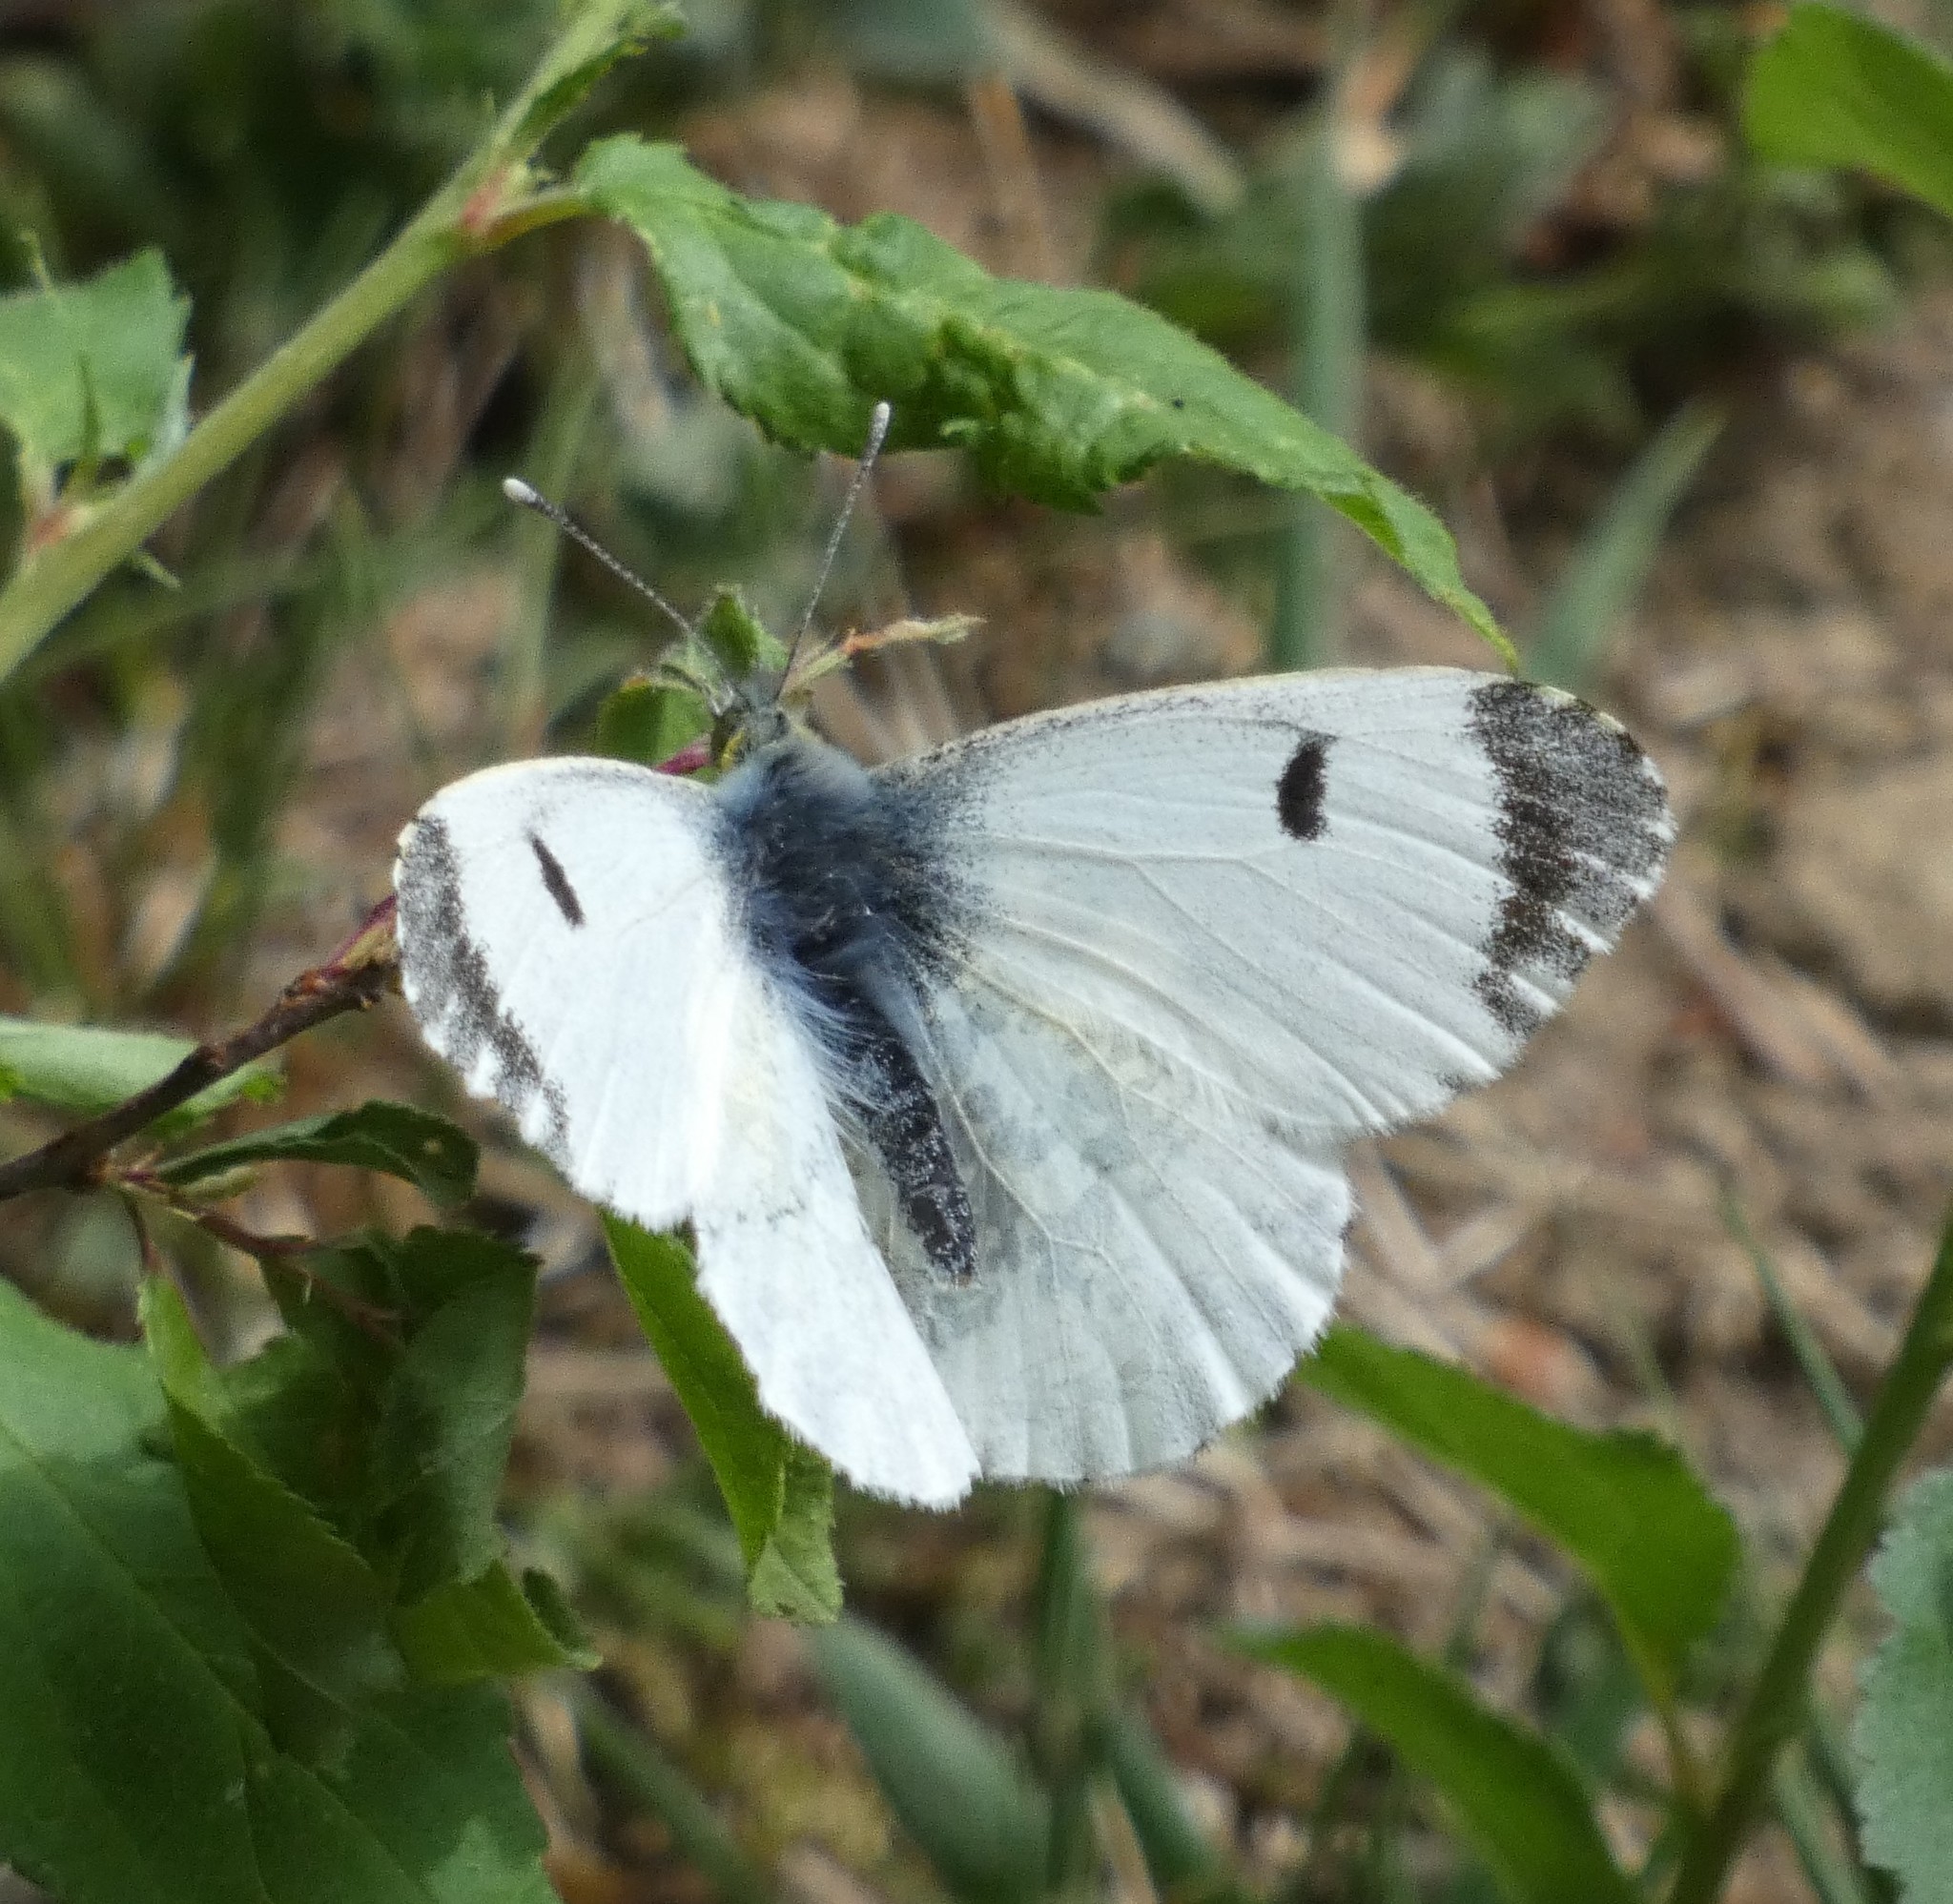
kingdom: Animalia
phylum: Arthropoda
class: Insecta
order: Lepidoptera
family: Pieridae
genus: Anthocharis
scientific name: Anthocharis cardamines
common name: Orange-tip
